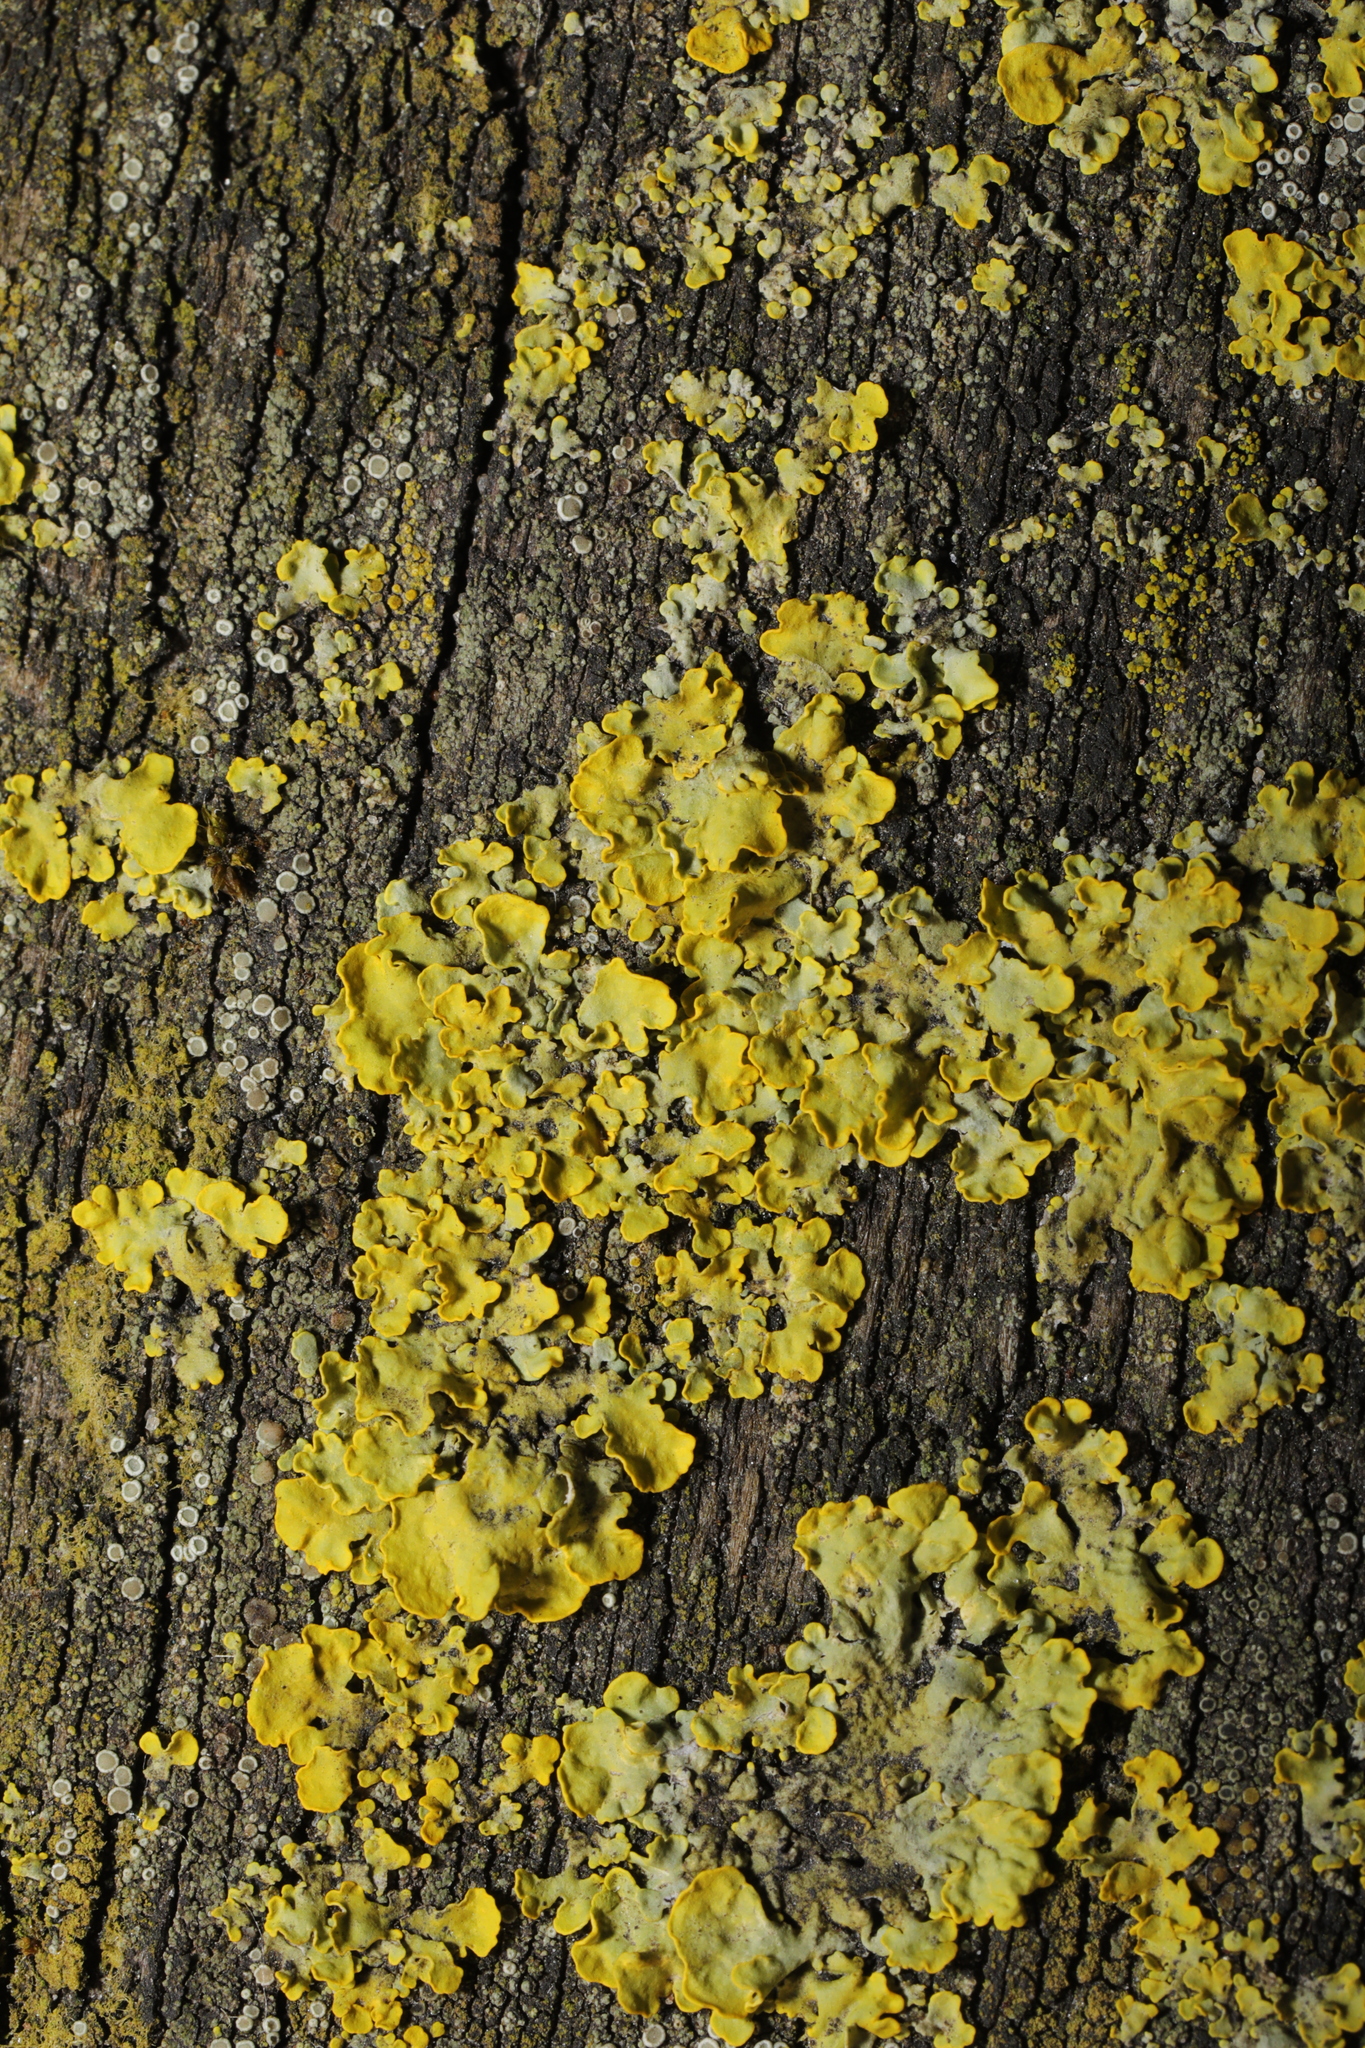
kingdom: Fungi
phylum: Ascomycota
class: Lecanoromycetes
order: Teloschistales
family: Teloschistaceae
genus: Xanthoria
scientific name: Xanthoria parietina
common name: Common orange lichen
